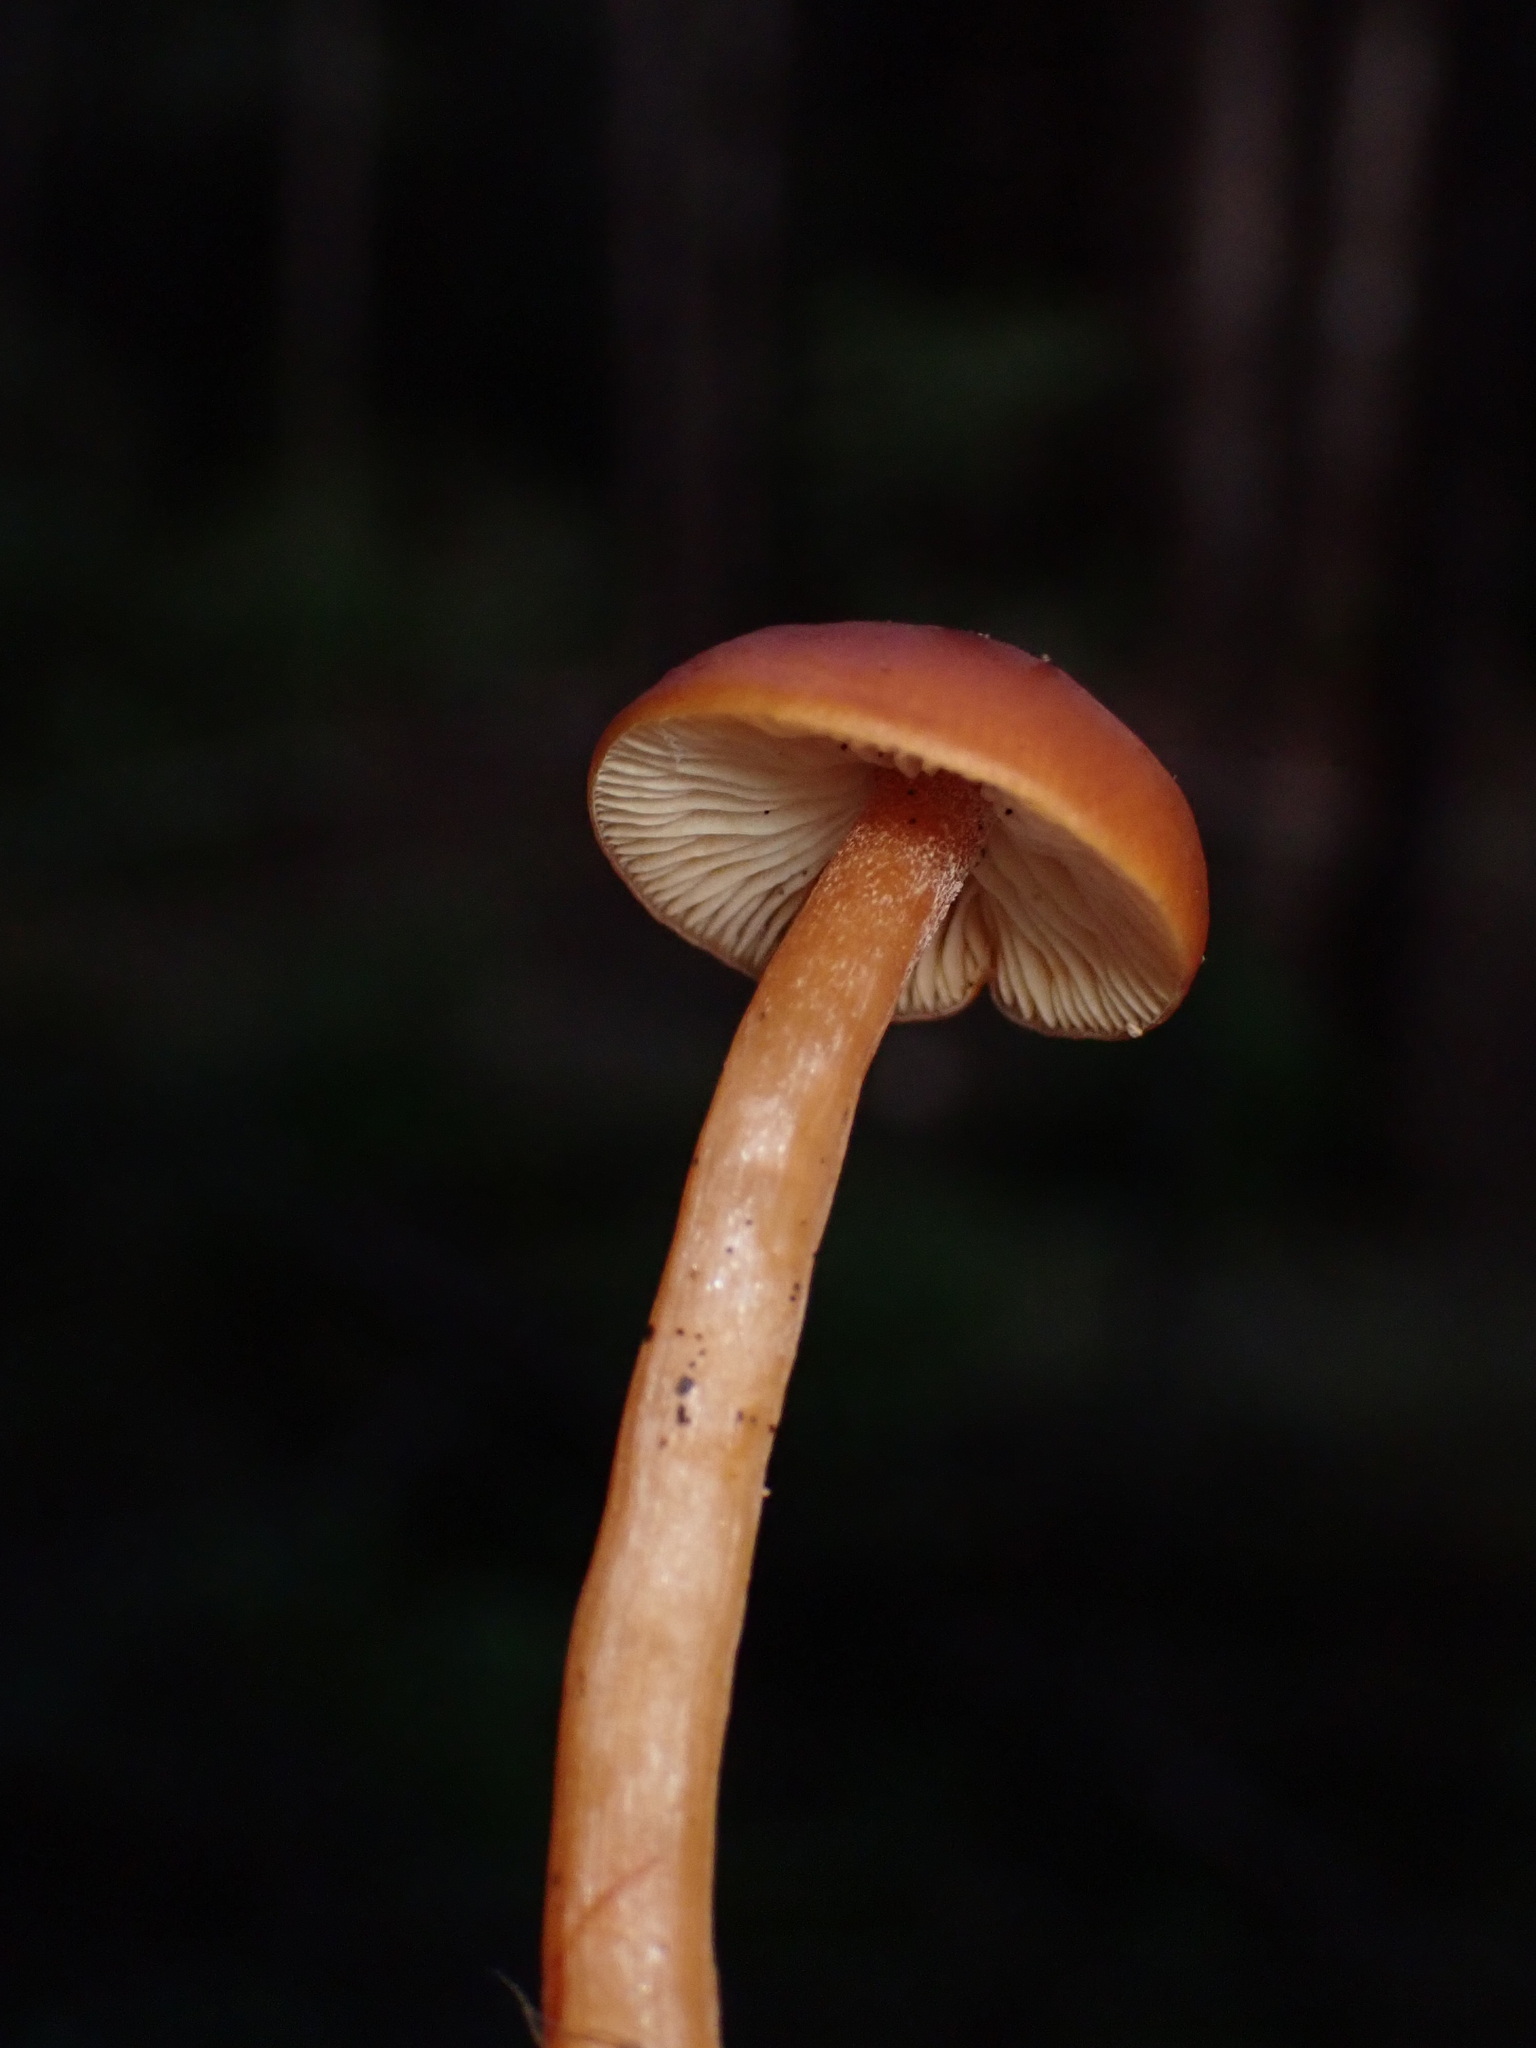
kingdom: Fungi
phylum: Basidiomycota
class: Agaricomycetes
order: Agaricales
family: Entolomataceae
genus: Rhodophana
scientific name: Rhodophana nitellina
